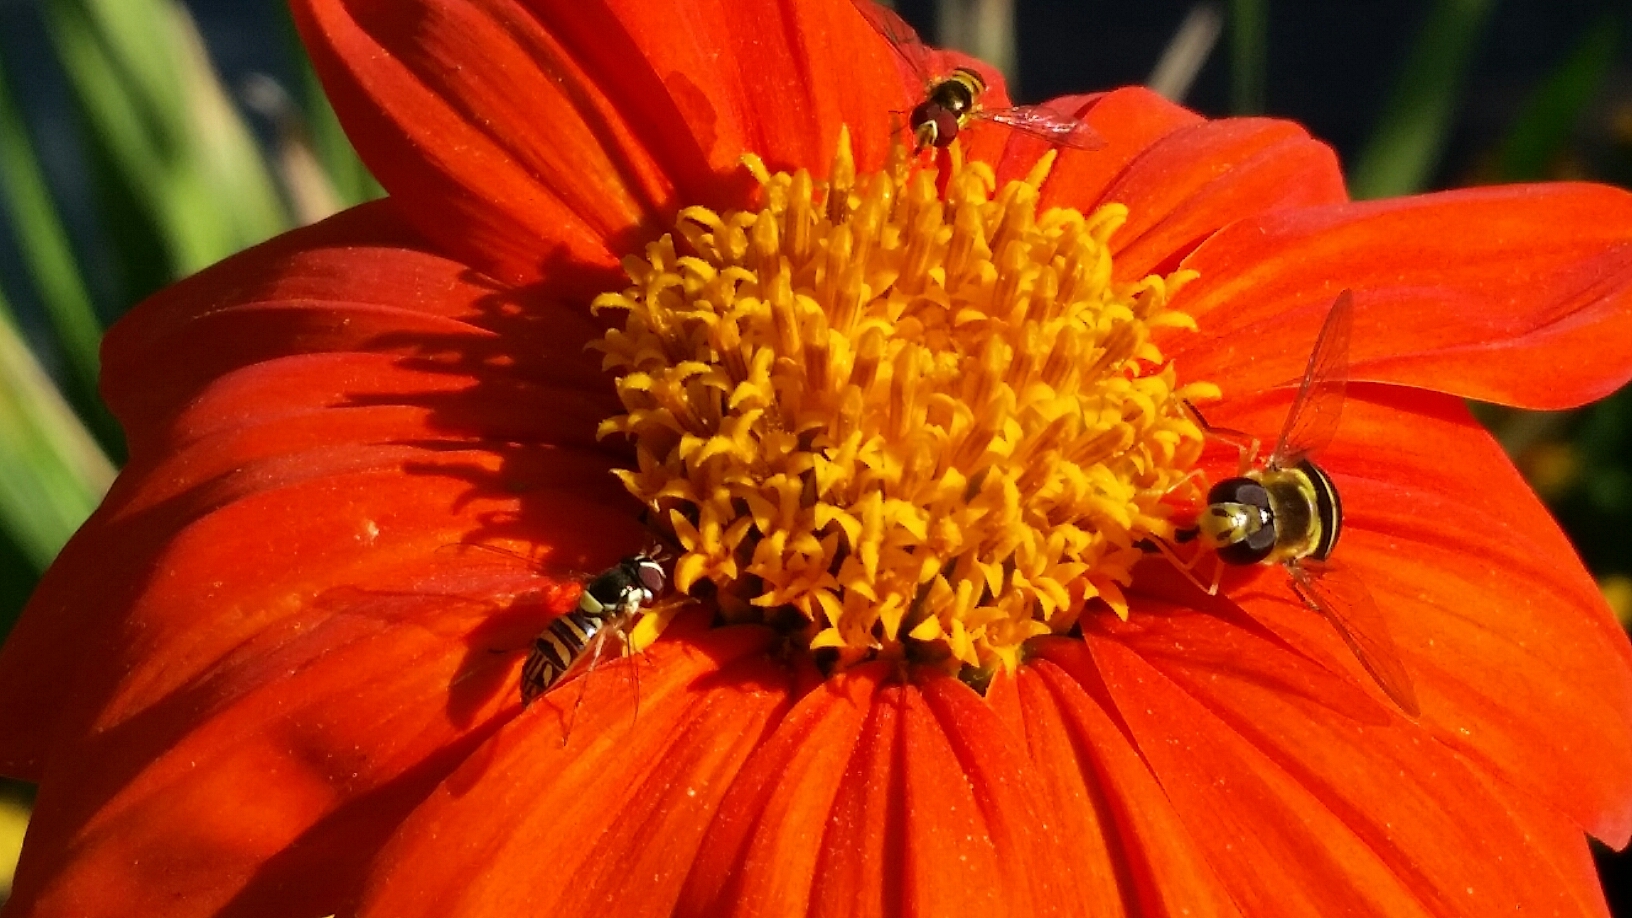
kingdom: Animalia
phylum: Arthropoda
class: Insecta
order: Diptera
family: Syrphidae
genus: Syrphus
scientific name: Syrphus opinator
